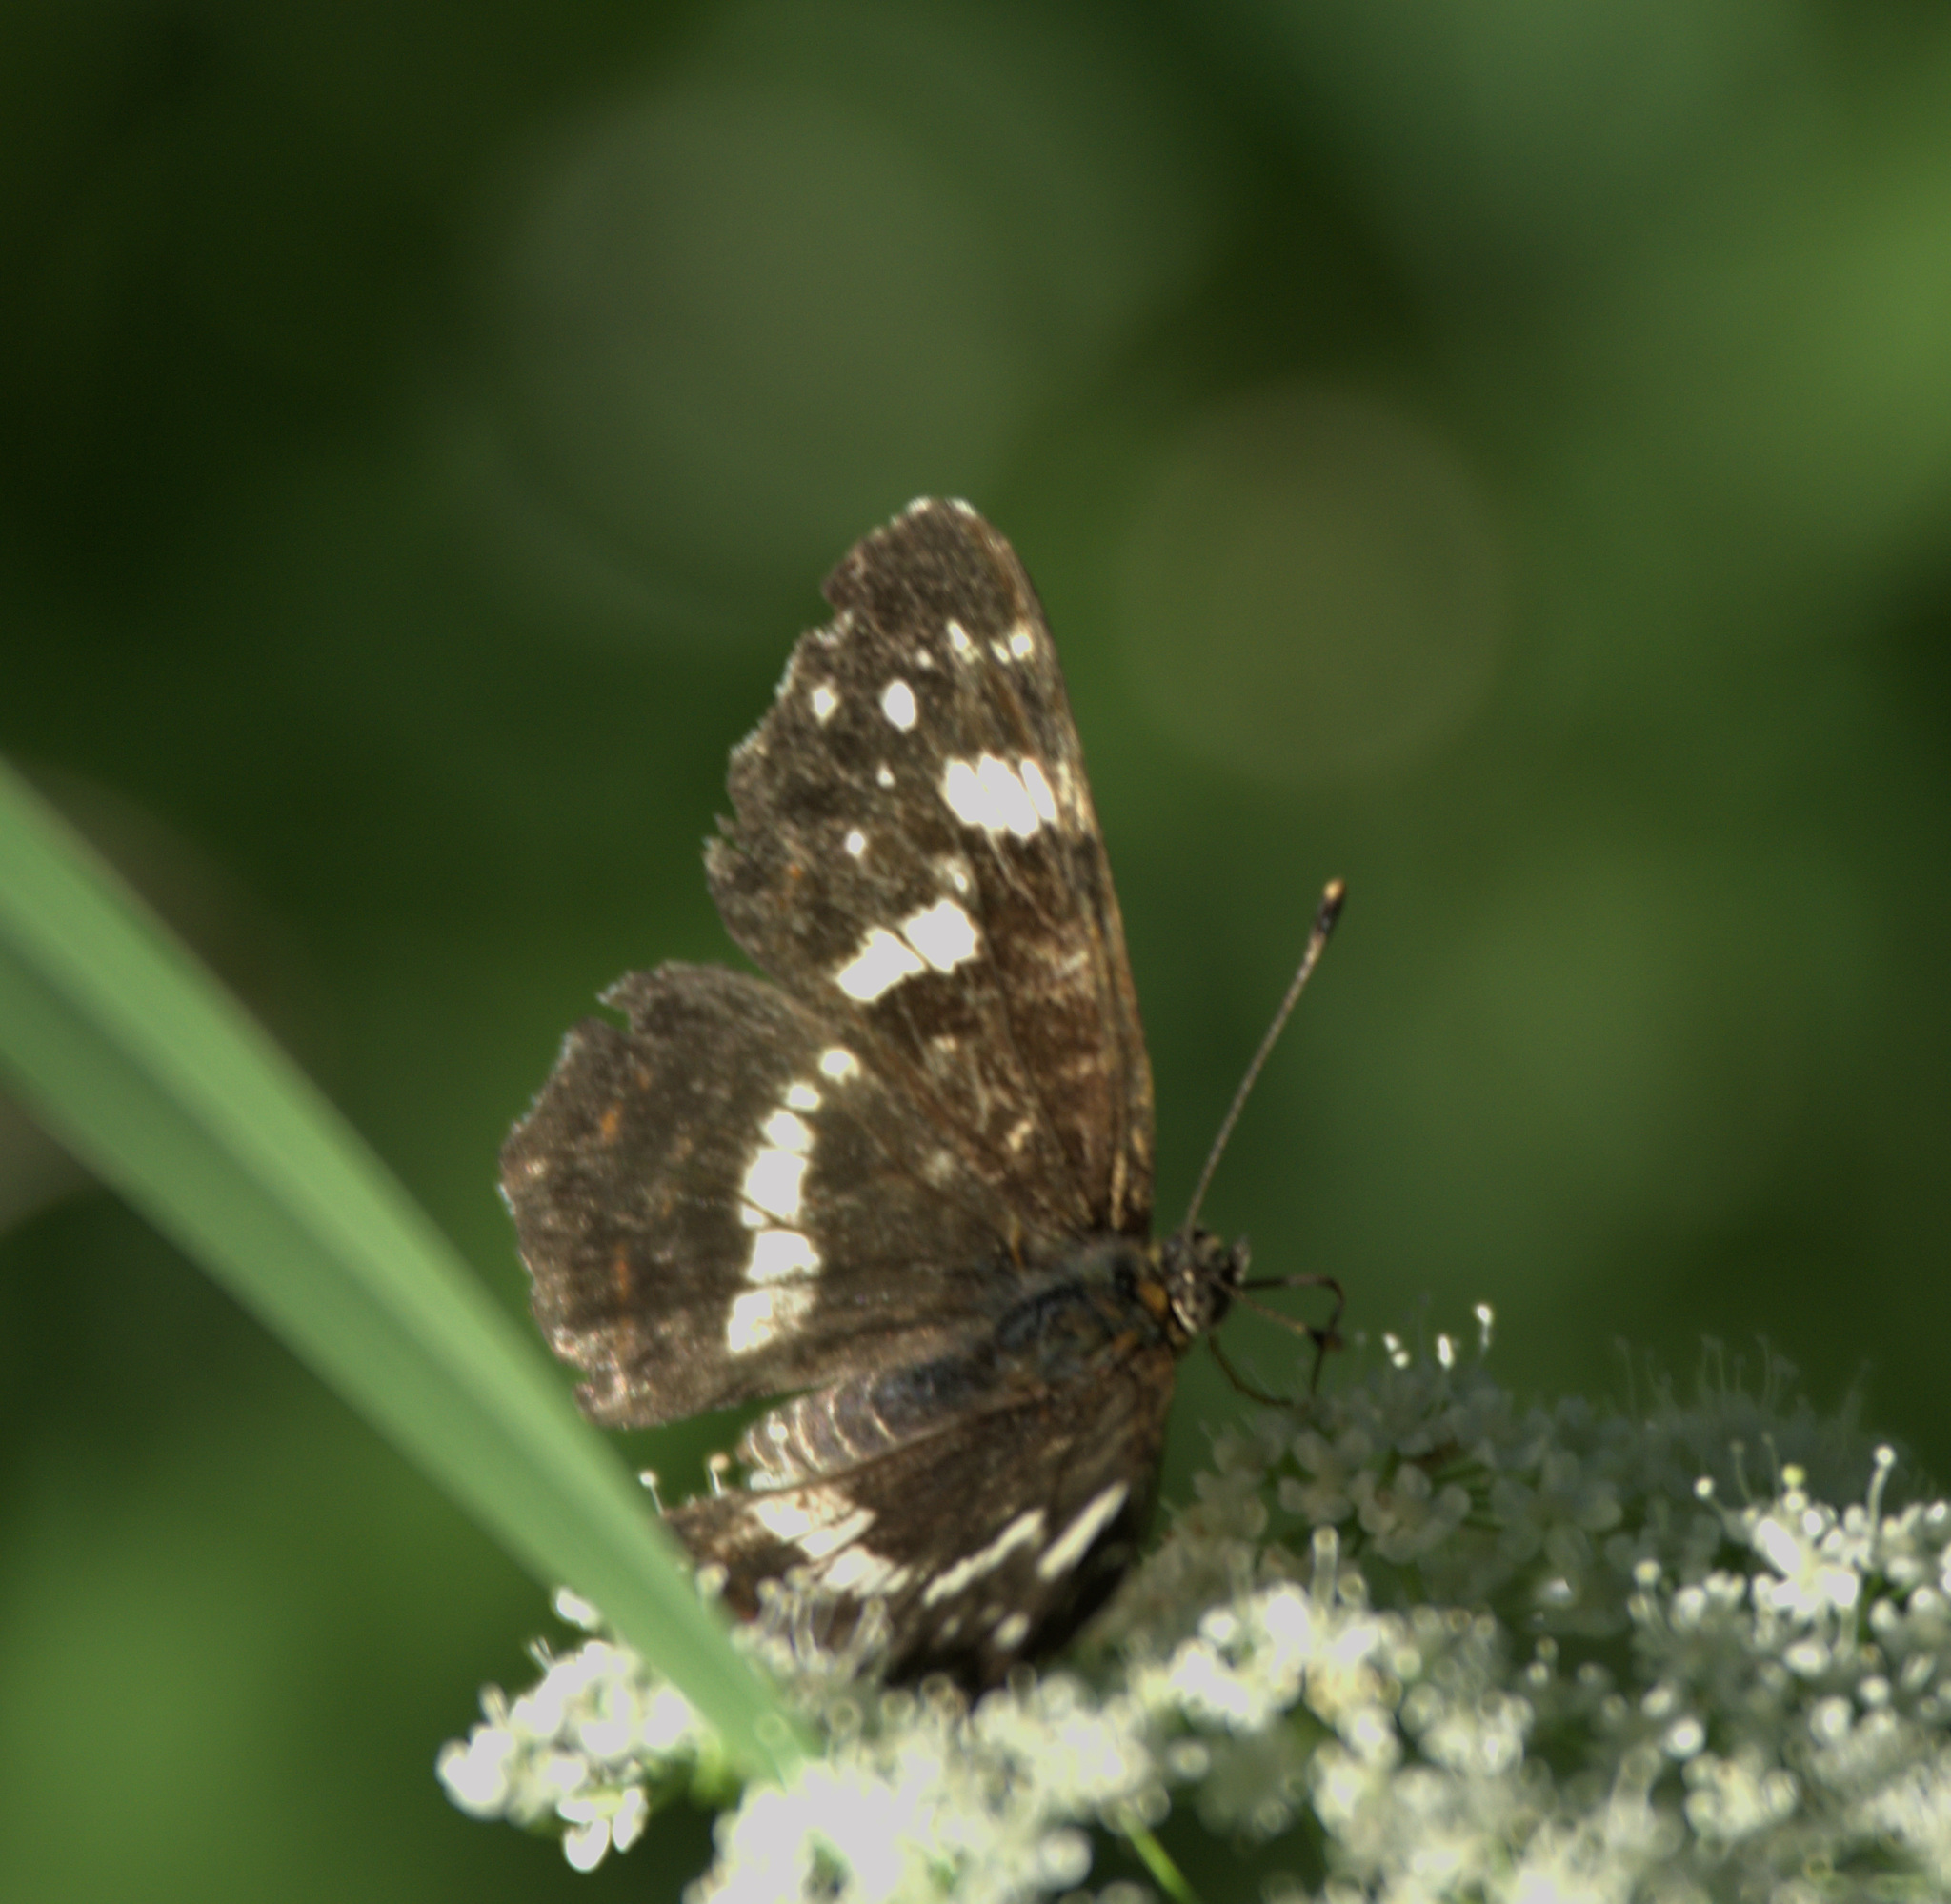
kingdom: Animalia
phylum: Arthropoda
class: Insecta
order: Lepidoptera
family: Nymphalidae
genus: Araschnia
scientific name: Araschnia levana
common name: Map butterfly
